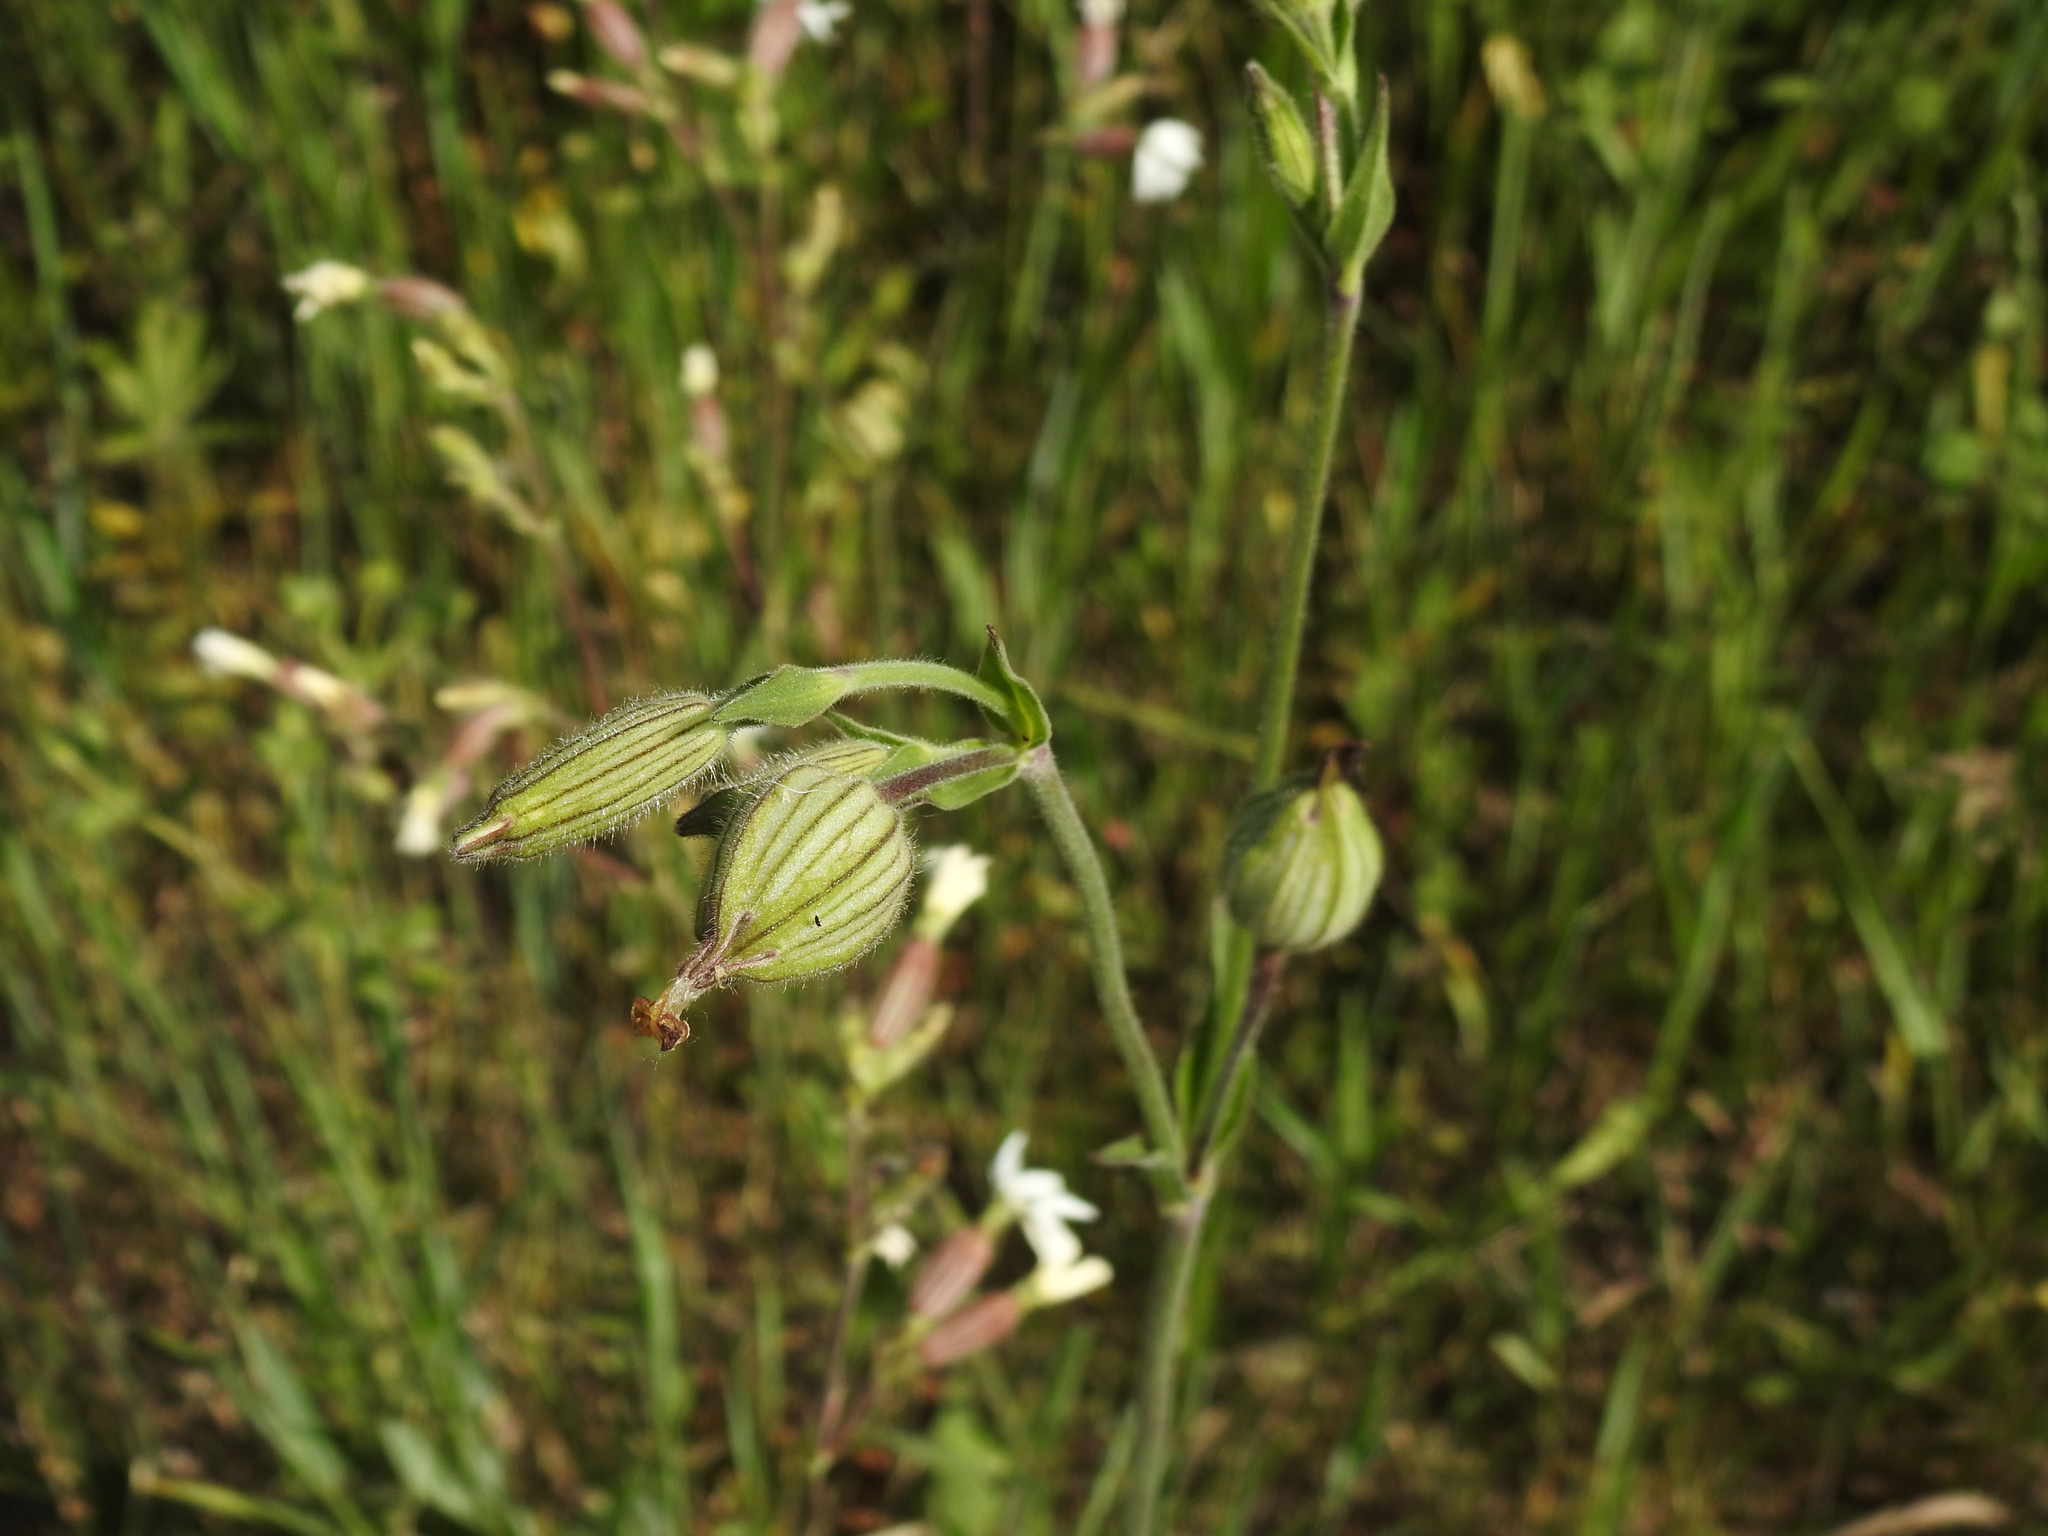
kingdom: Plantae
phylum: Tracheophyta
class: Magnoliopsida
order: Caryophyllales
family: Caryophyllaceae
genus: Silene
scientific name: Silene latifolia
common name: White campion
